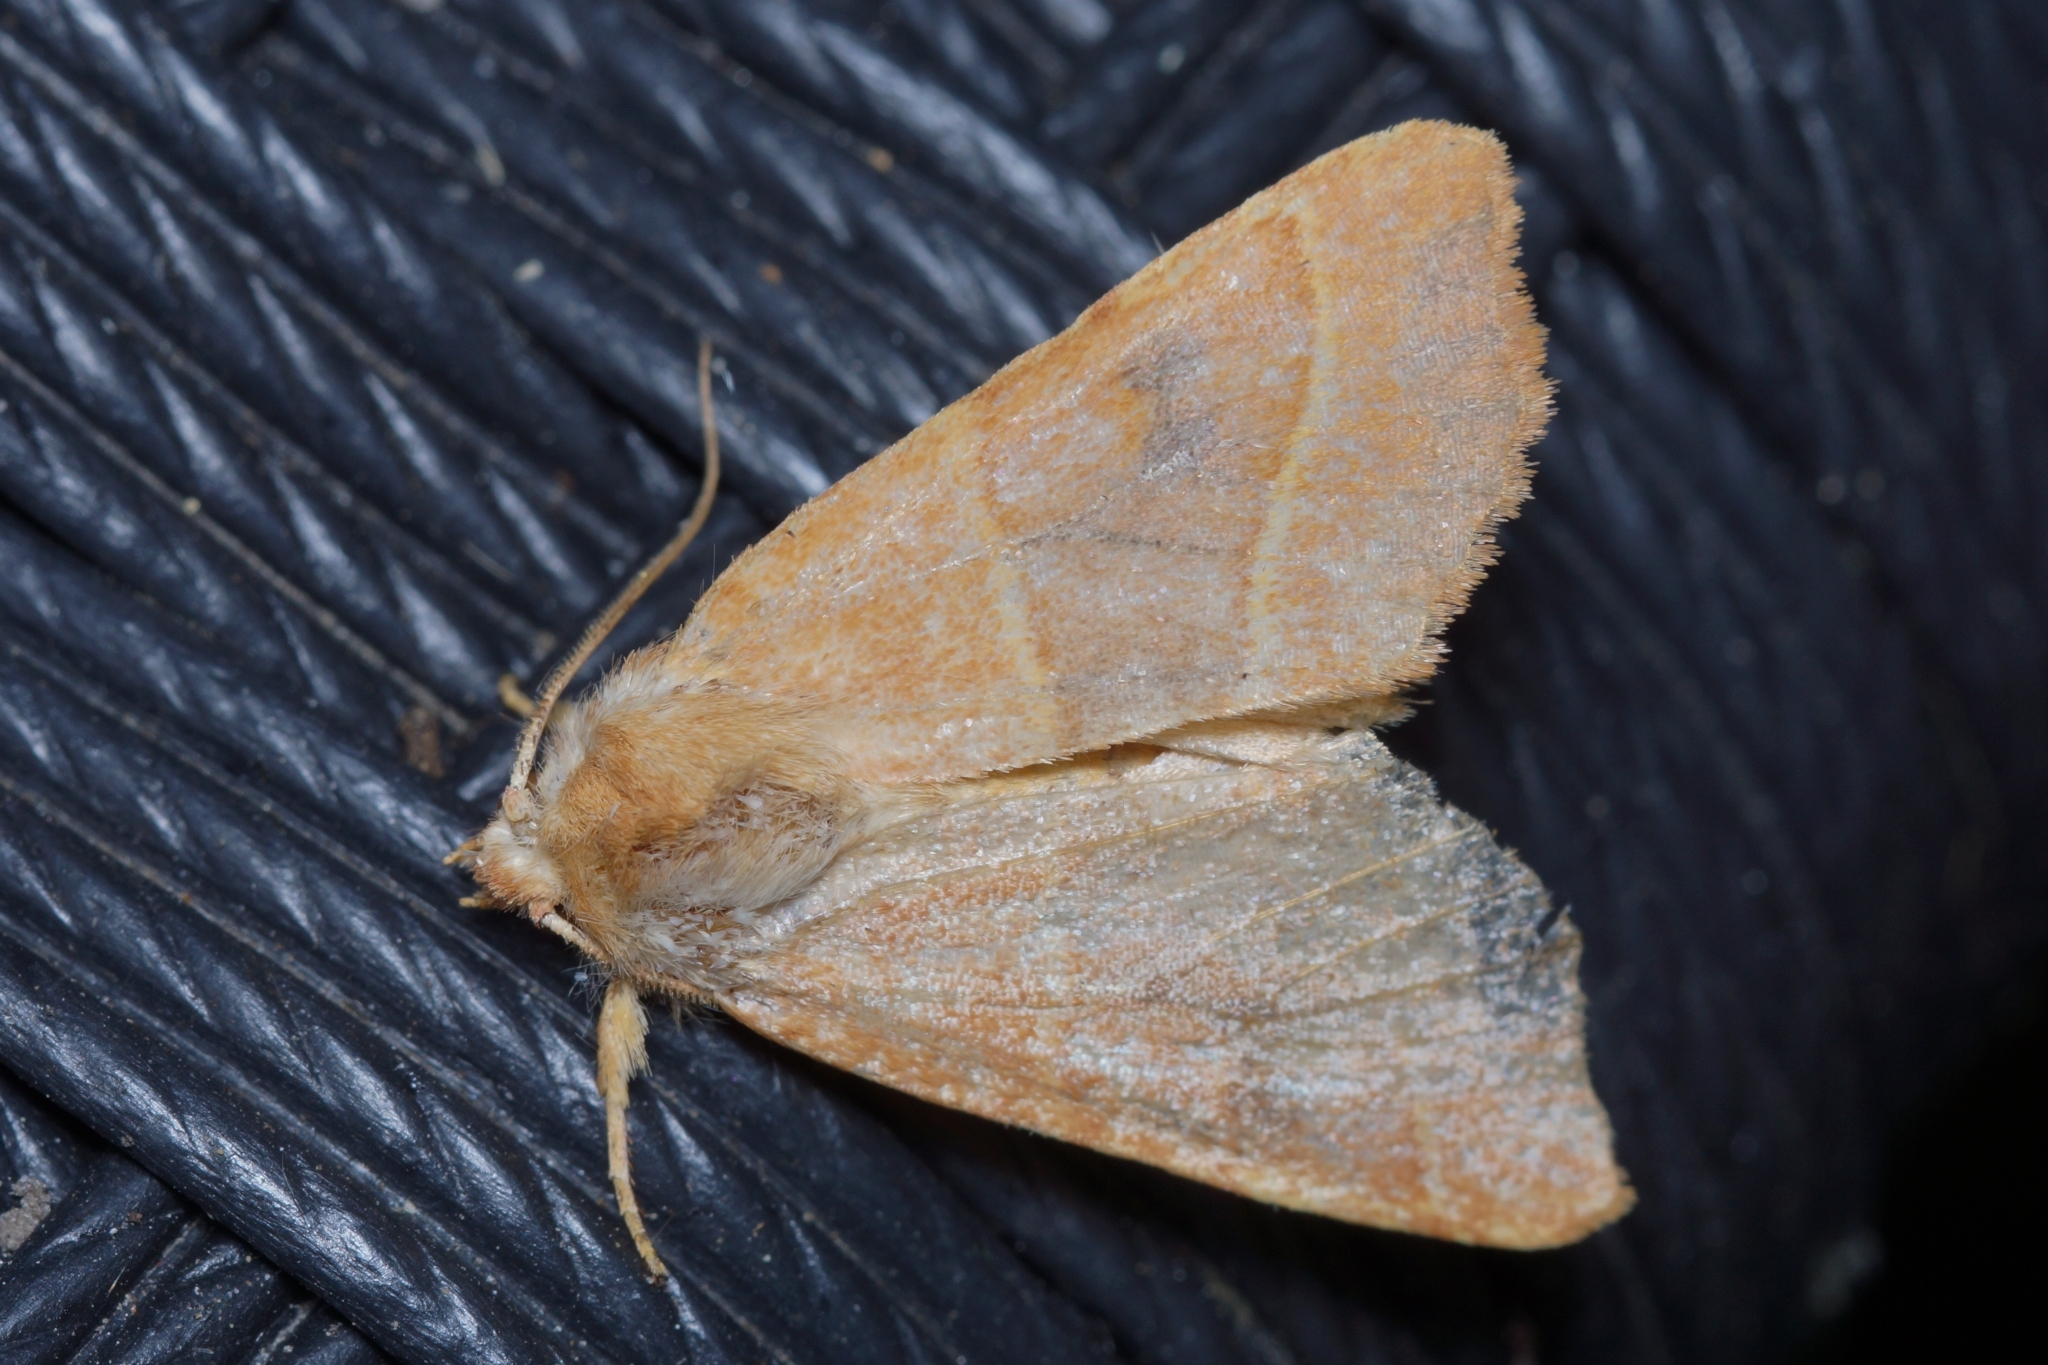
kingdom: Animalia
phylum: Arthropoda
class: Insecta
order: Lepidoptera
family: Noctuidae
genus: Atethmia
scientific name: Atethmia centrago
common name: Centre-barred sallow
